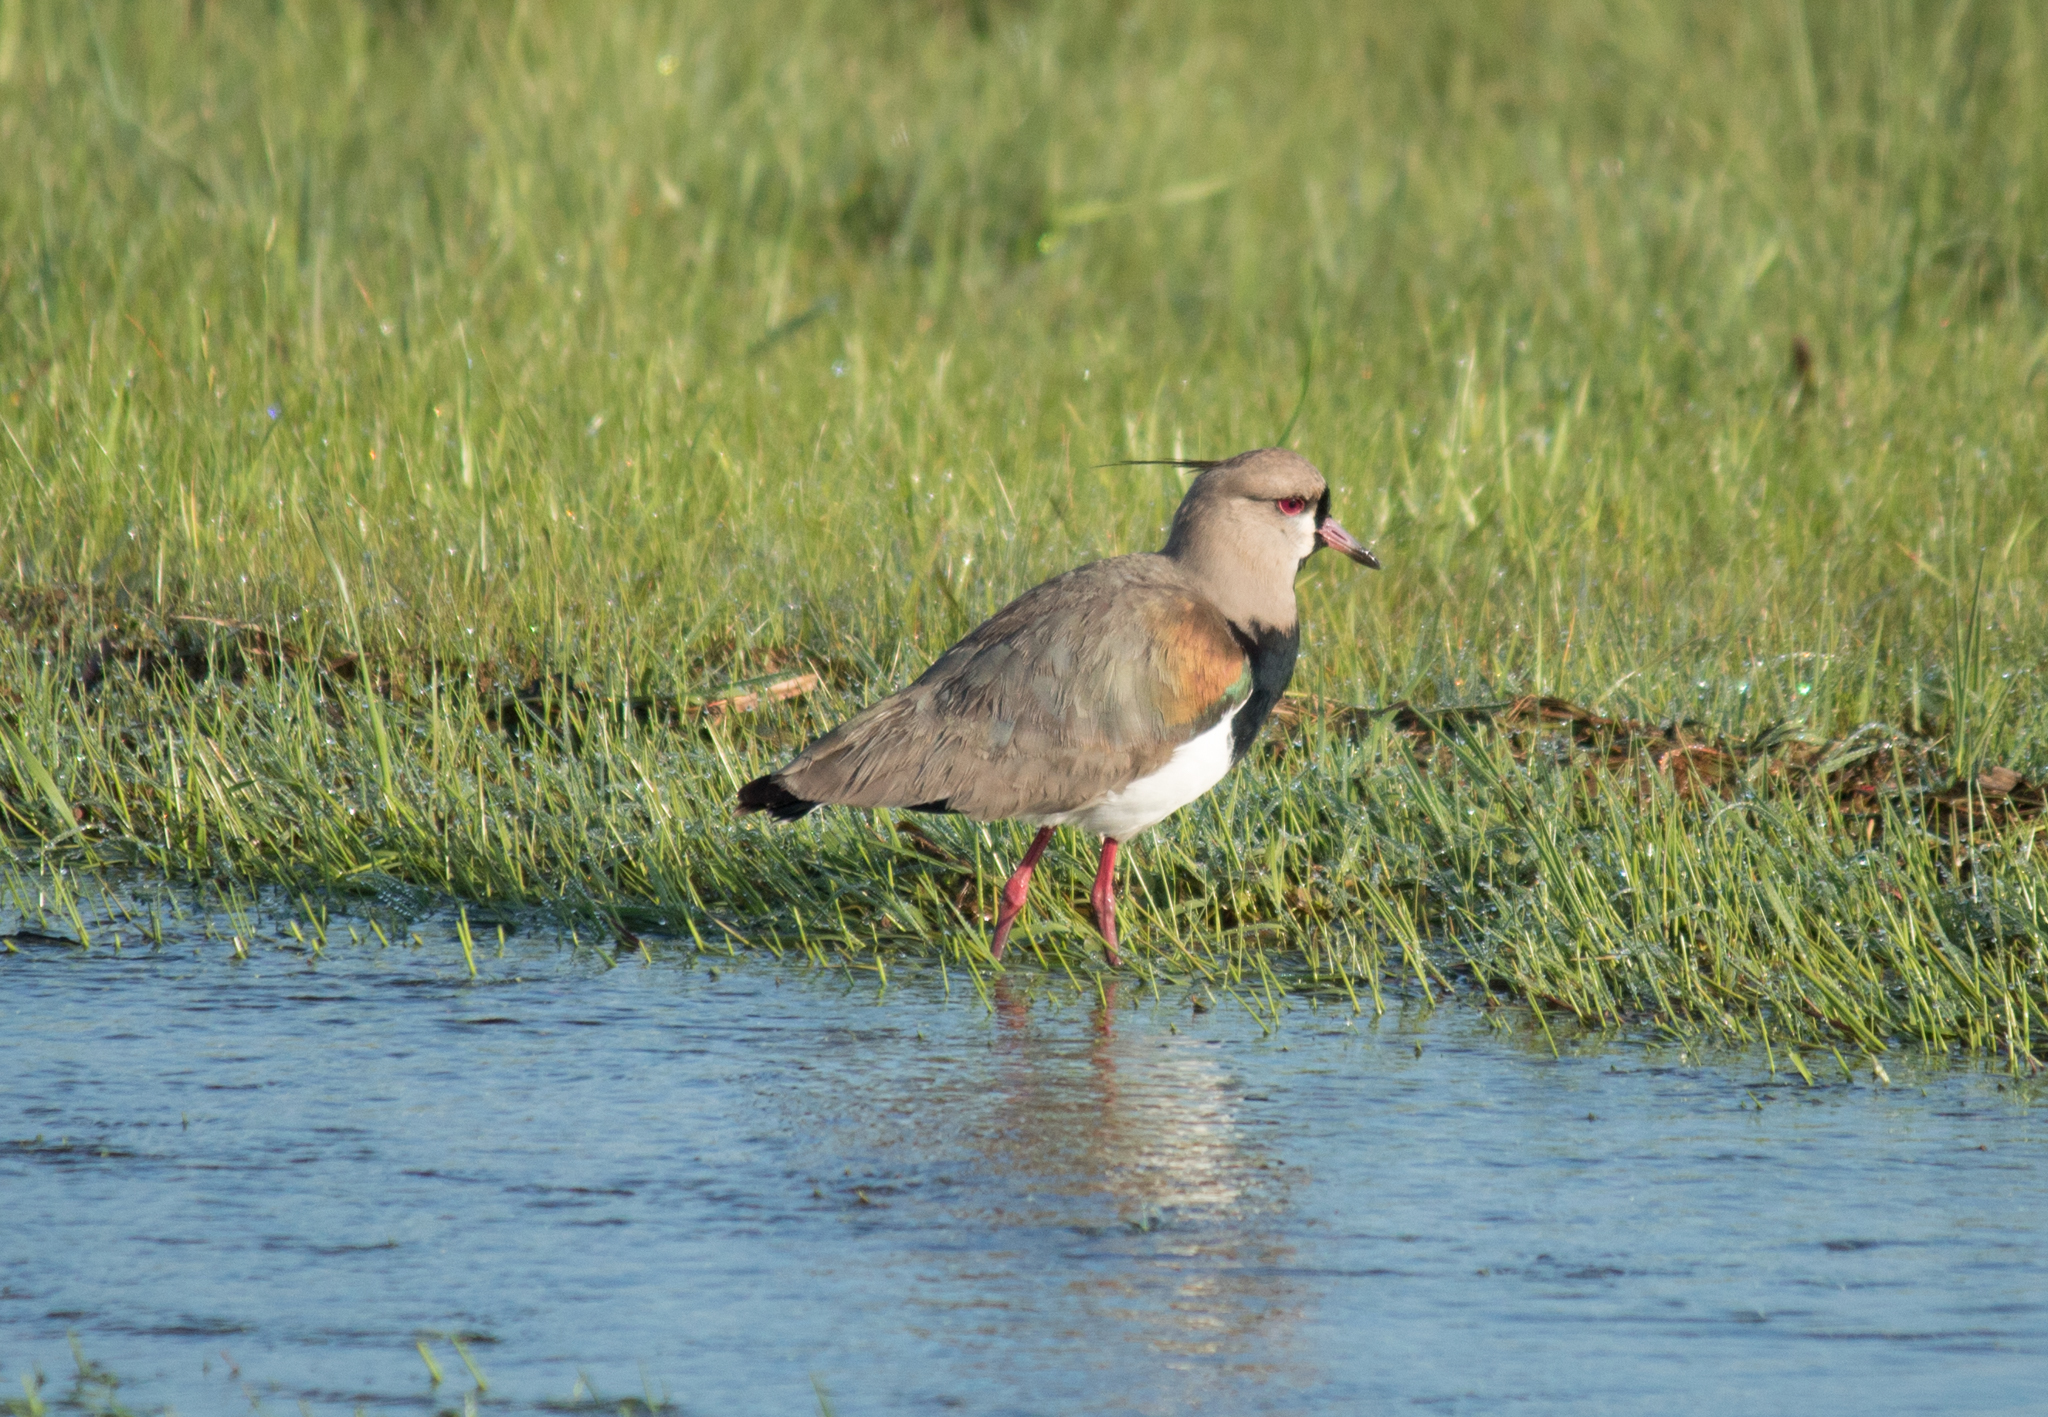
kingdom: Animalia
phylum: Chordata
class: Aves
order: Charadriiformes
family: Charadriidae
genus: Vanellus
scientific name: Vanellus chilensis
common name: Southern lapwing
